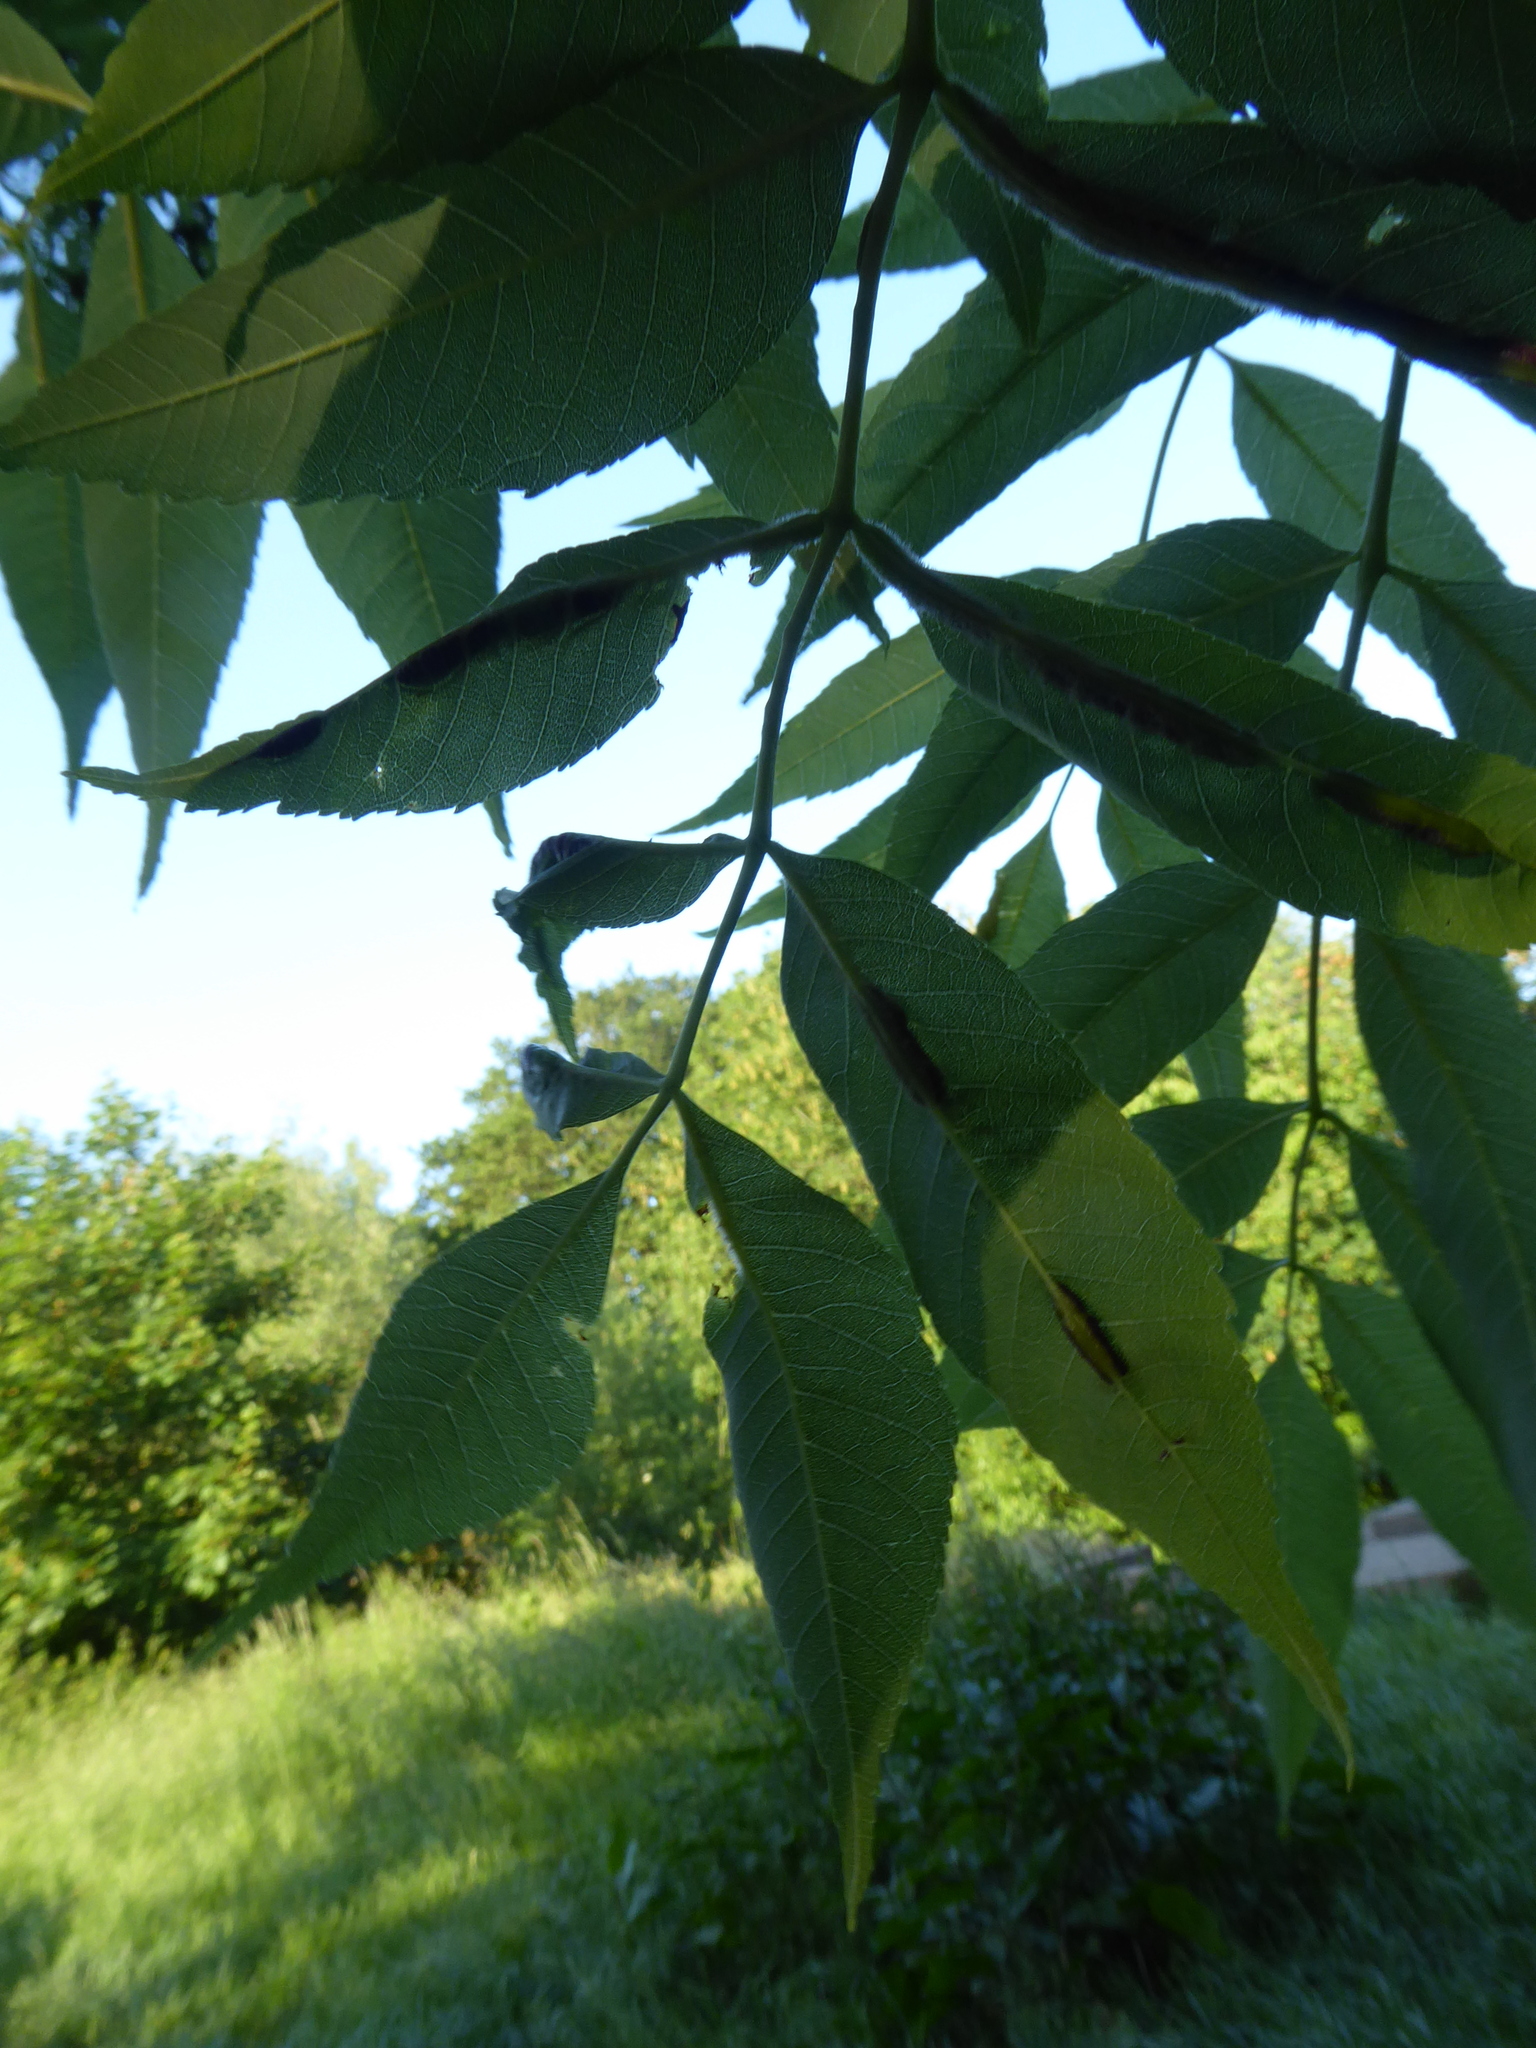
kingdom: Animalia
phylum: Arthropoda
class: Insecta
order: Diptera
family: Cecidomyiidae
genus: Dasineura
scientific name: Dasineura fraxini
